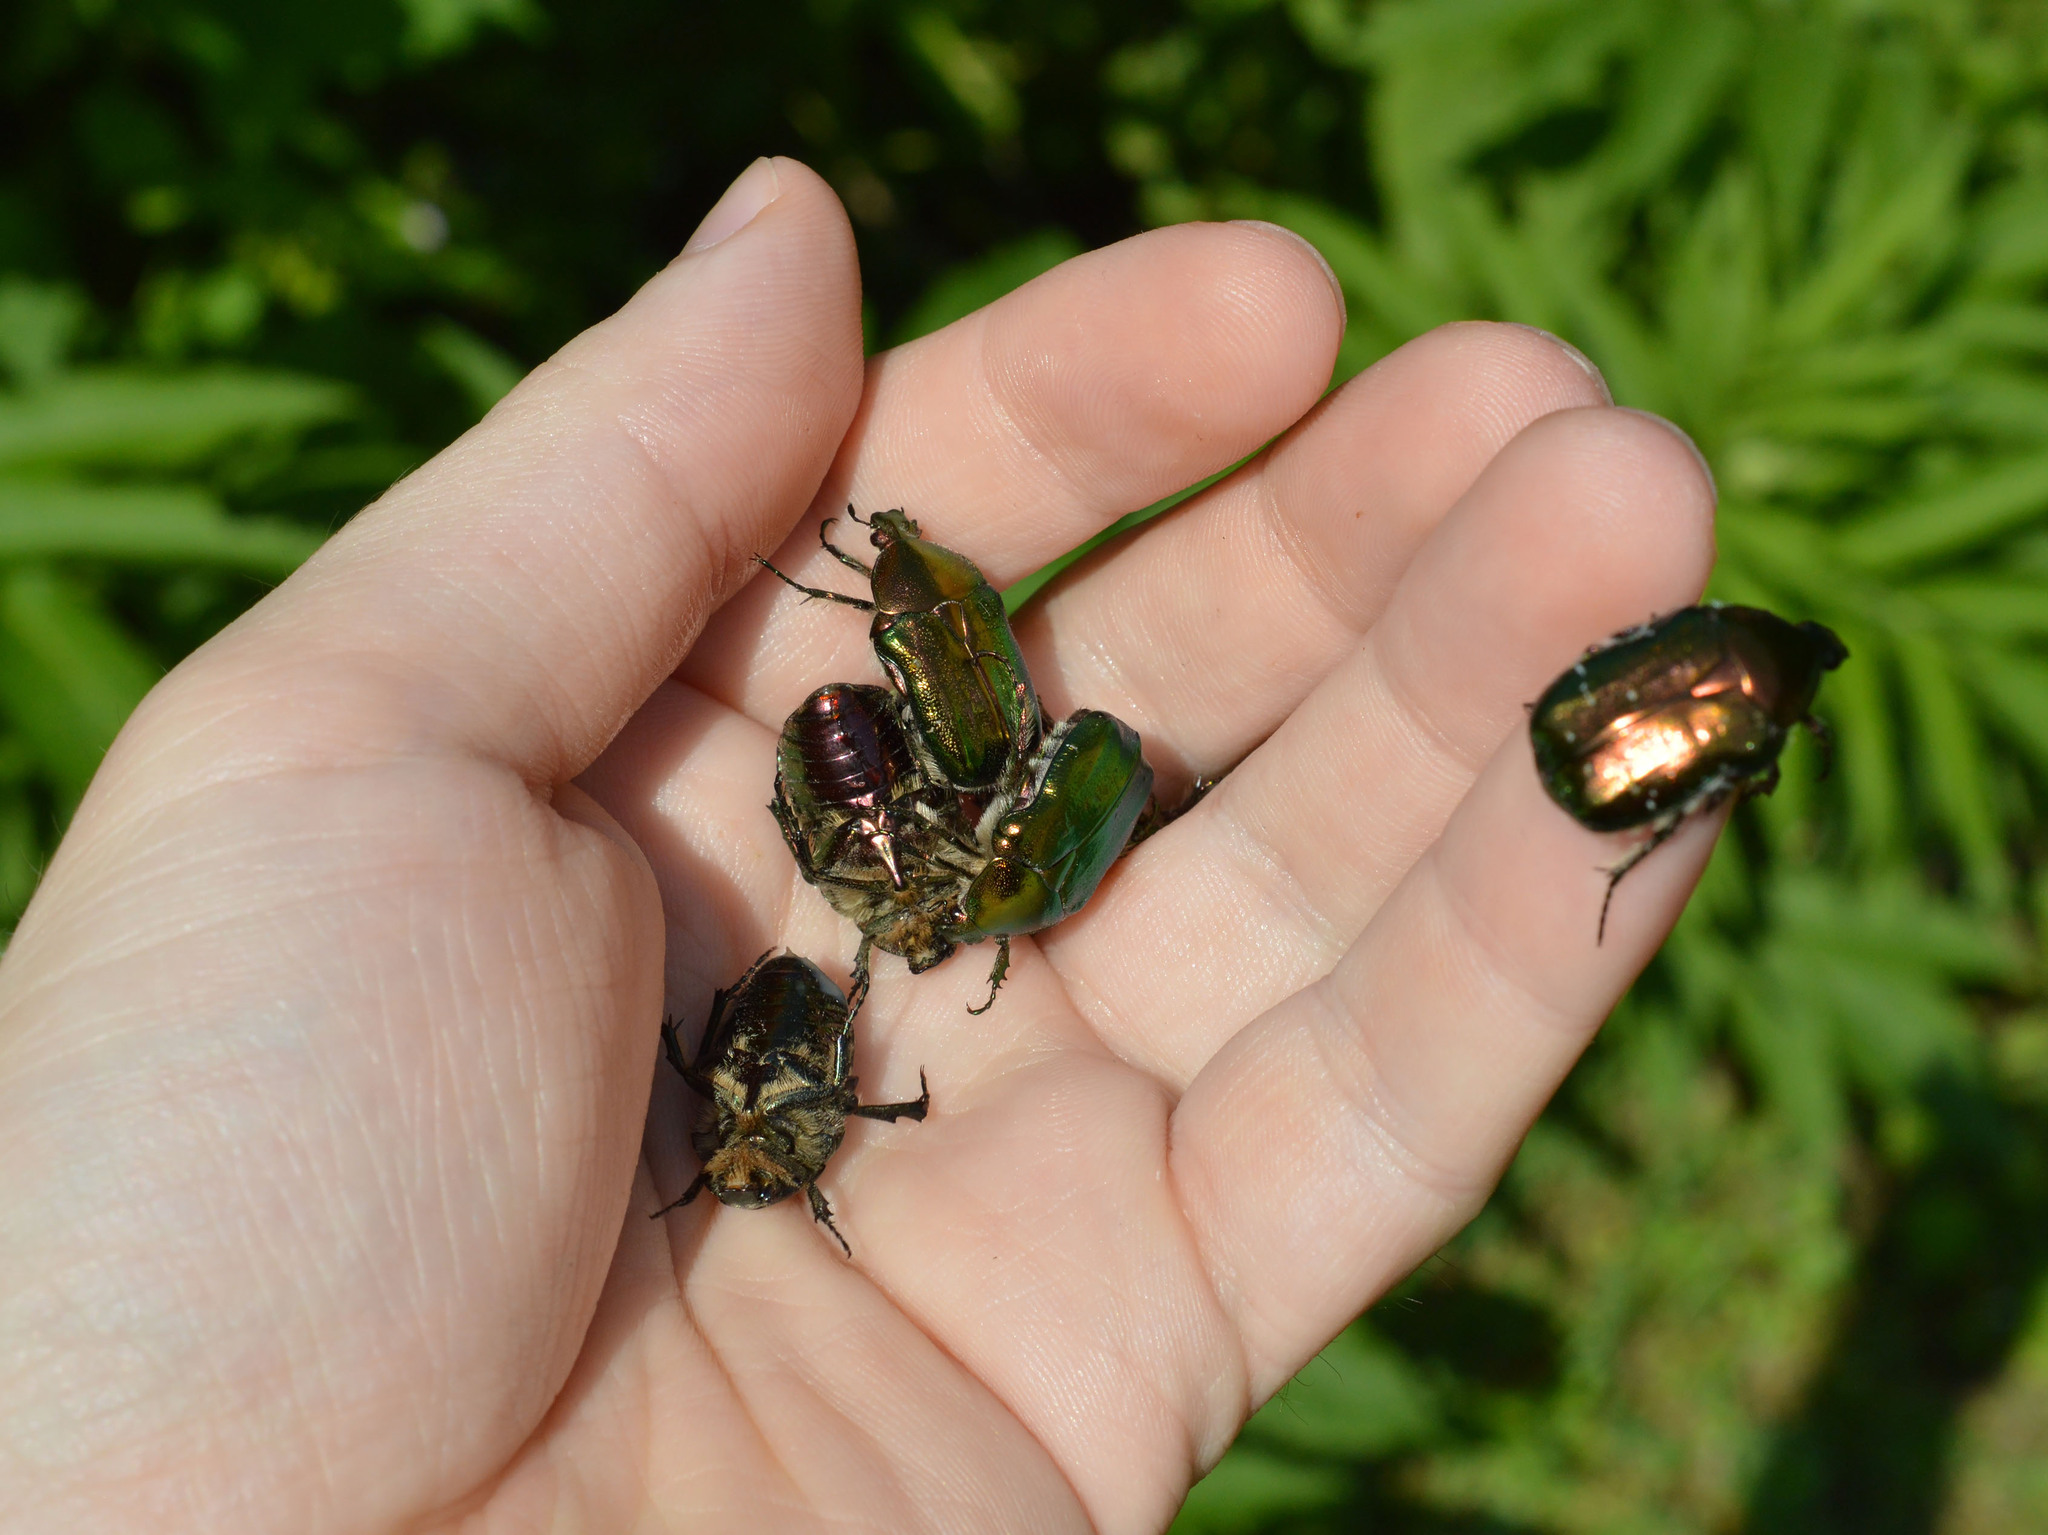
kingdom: Animalia
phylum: Arthropoda
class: Insecta
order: Coleoptera
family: Scarabaeidae
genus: Cetonia
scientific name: Cetonia aurata
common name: Rose chafer
